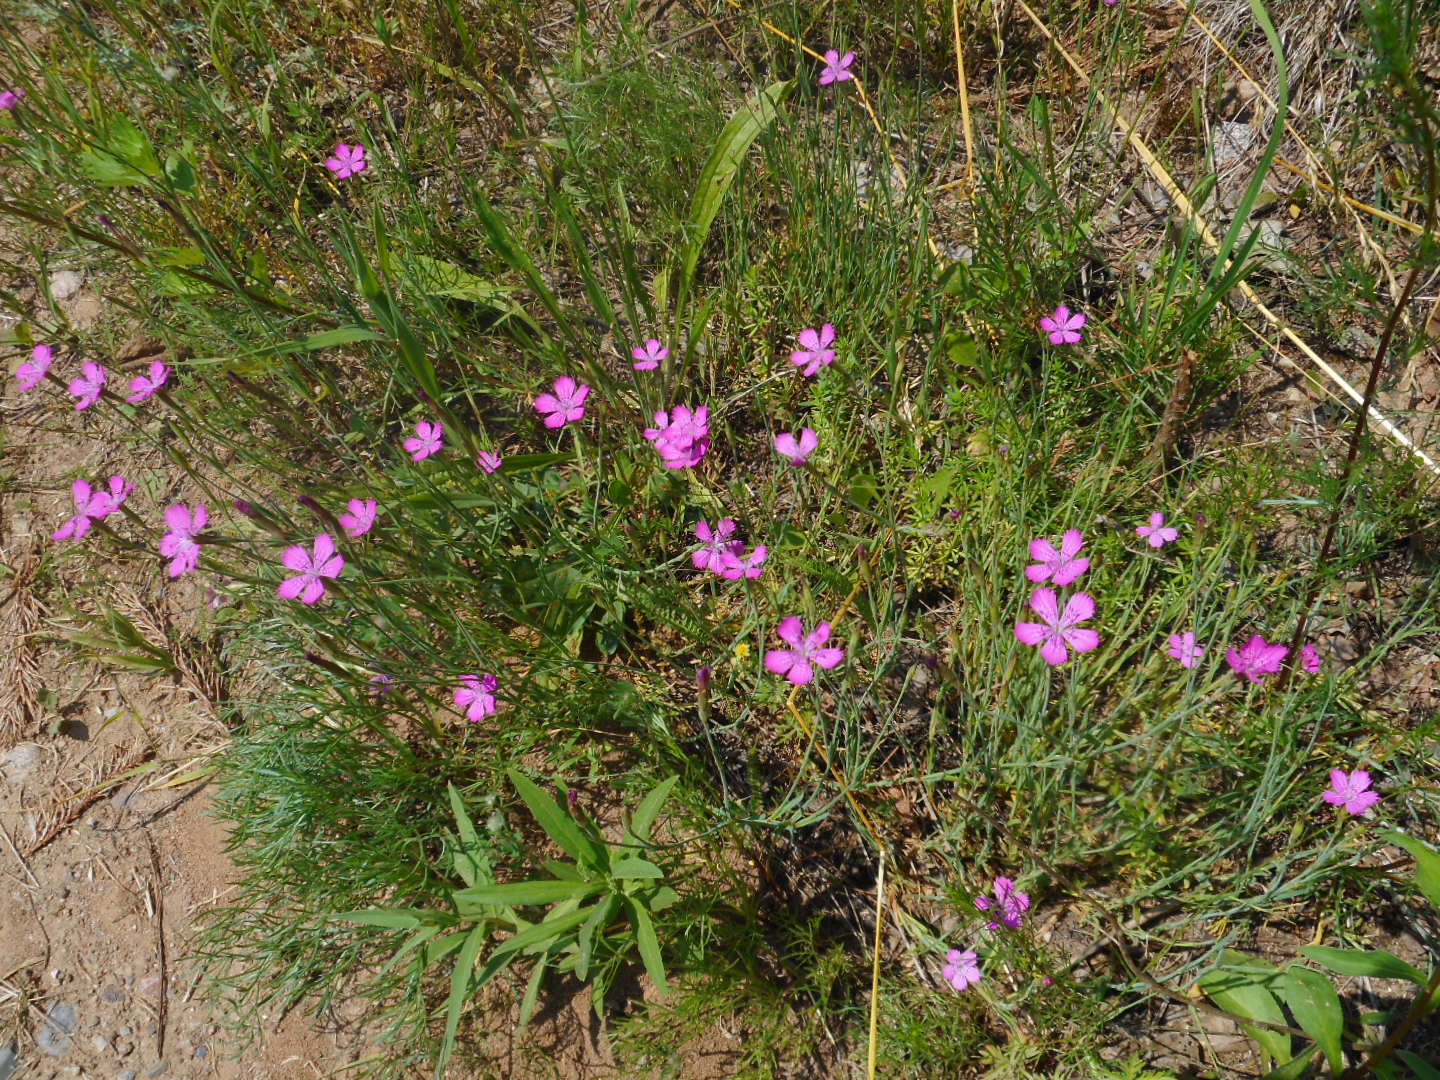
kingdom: Plantae
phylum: Tracheophyta
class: Magnoliopsida
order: Caryophyllales
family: Caryophyllaceae
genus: Dianthus
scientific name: Dianthus deltoides
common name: Maiden pink
